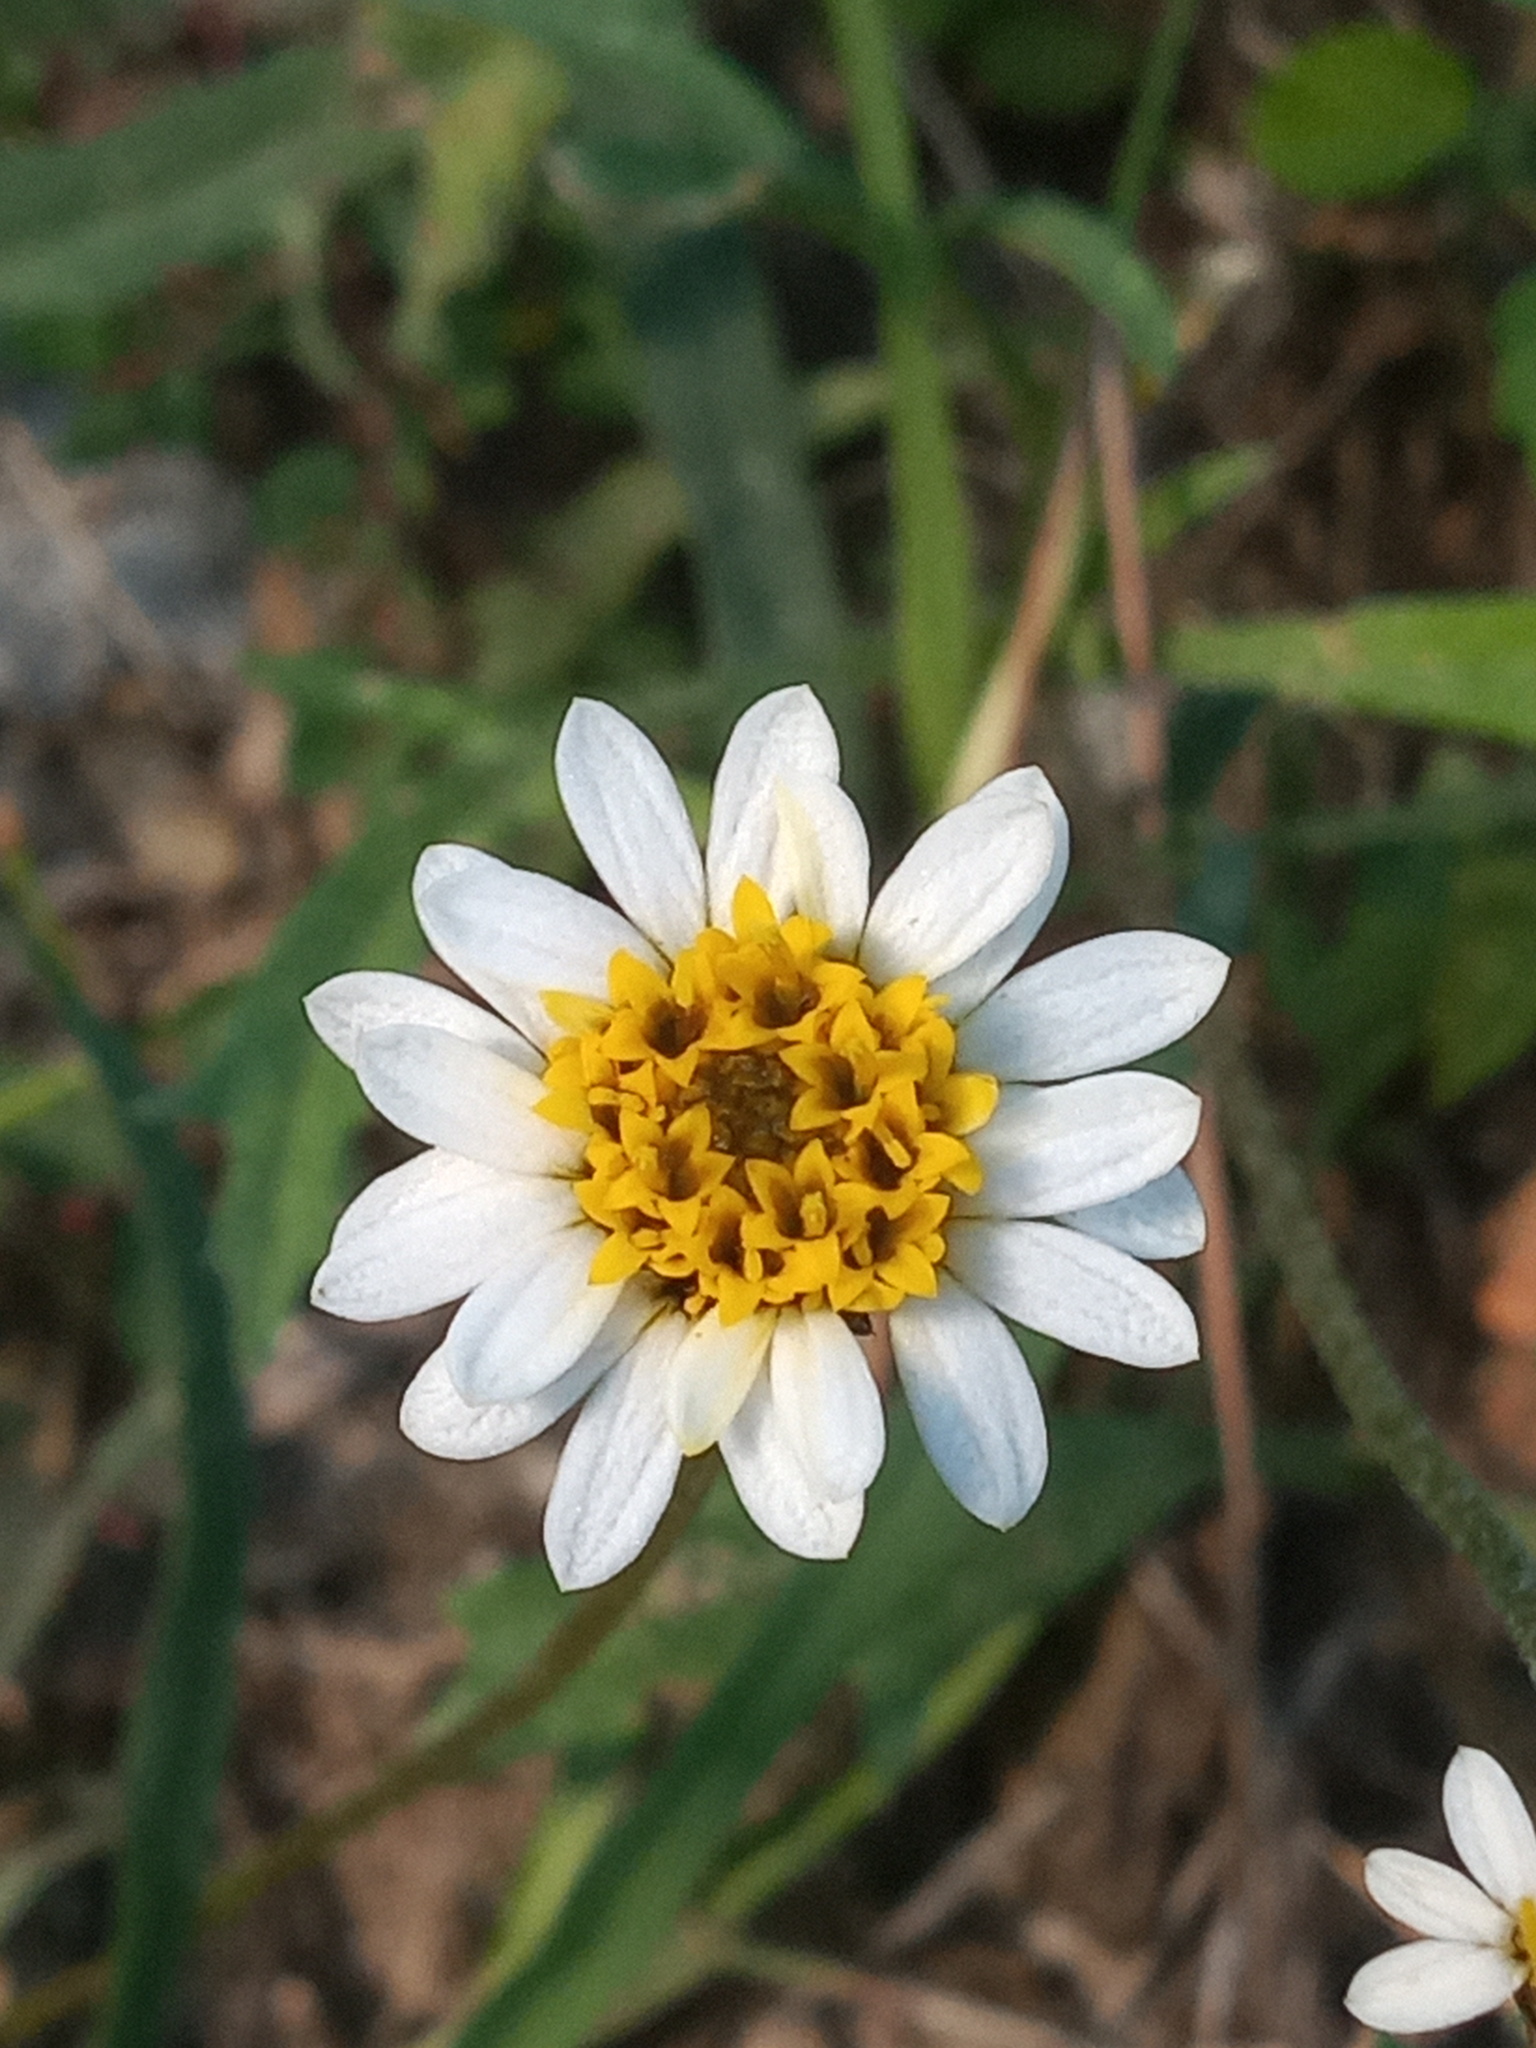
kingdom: Plantae
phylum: Tracheophyta
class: Magnoliopsida
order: Asterales
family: Asteraceae
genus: Tridax
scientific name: Tridax coronopifolia
